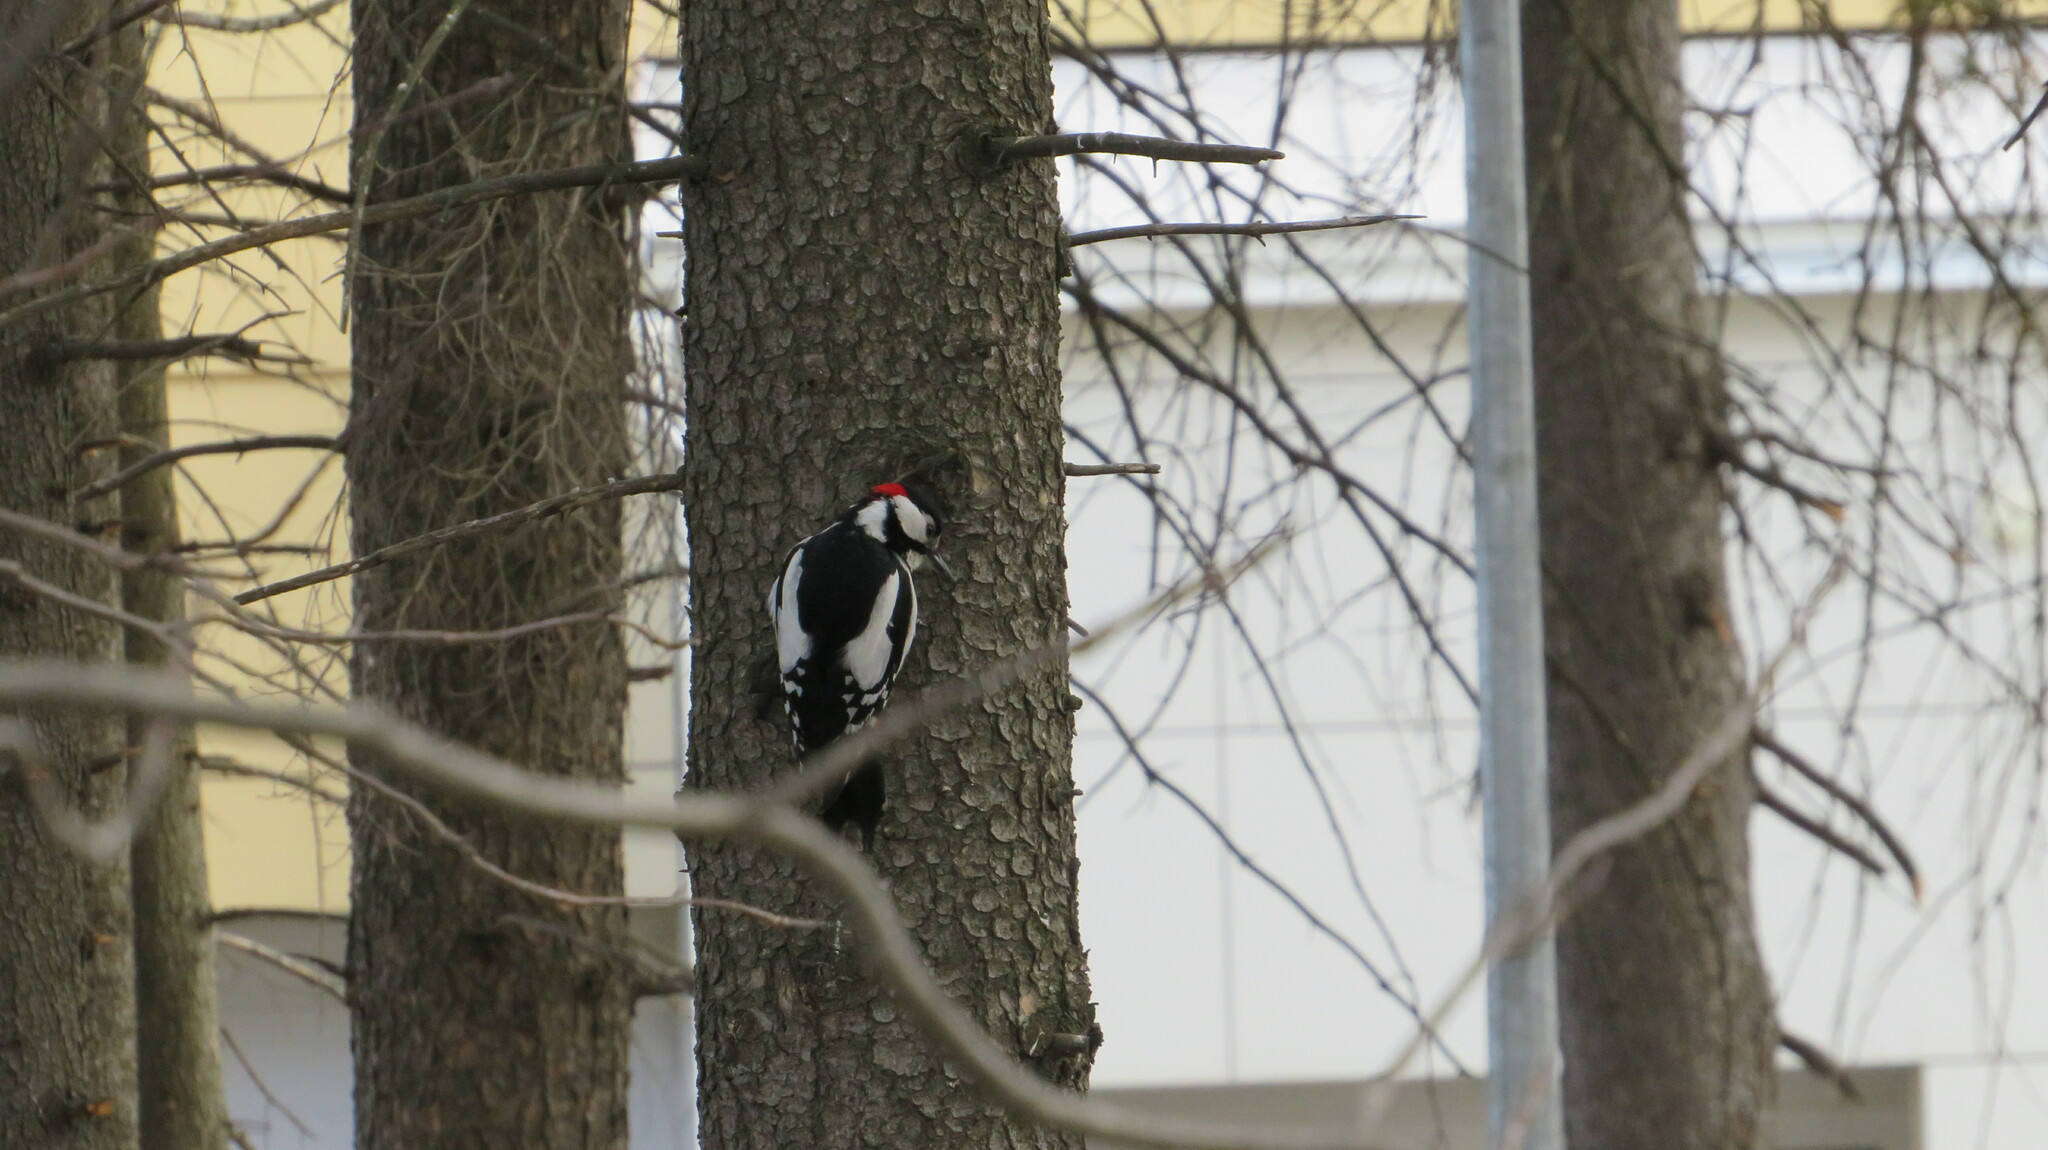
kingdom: Animalia
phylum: Chordata
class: Aves
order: Piciformes
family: Picidae
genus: Dendrocopos
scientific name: Dendrocopos major
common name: Great spotted woodpecker
